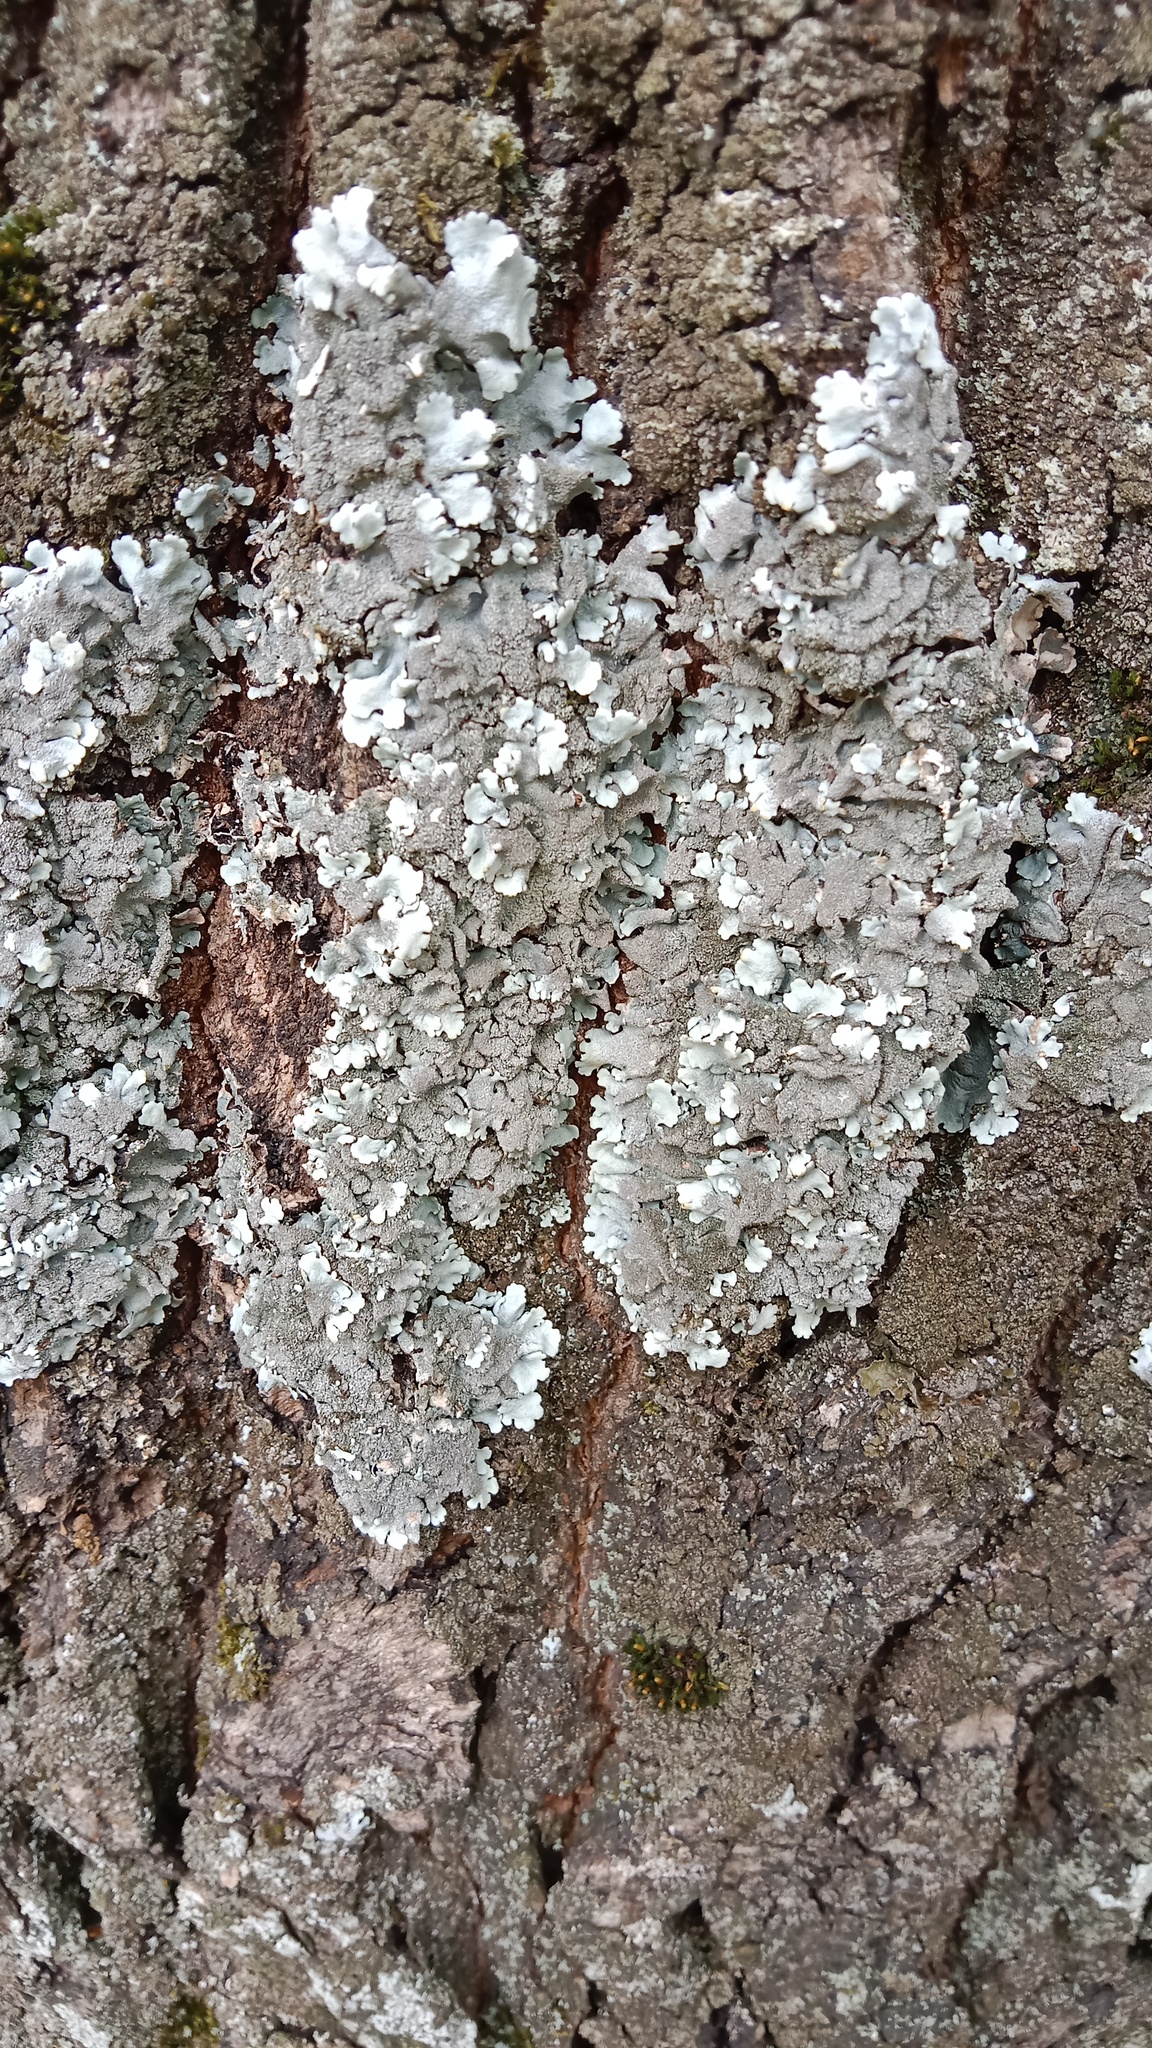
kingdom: Fungi
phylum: Ascomycota
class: Lecanoromycetes
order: Lecanorales
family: Parmeliaceae
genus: Parmelina
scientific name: Parmelina tiliacea
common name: Linden shield lichen
